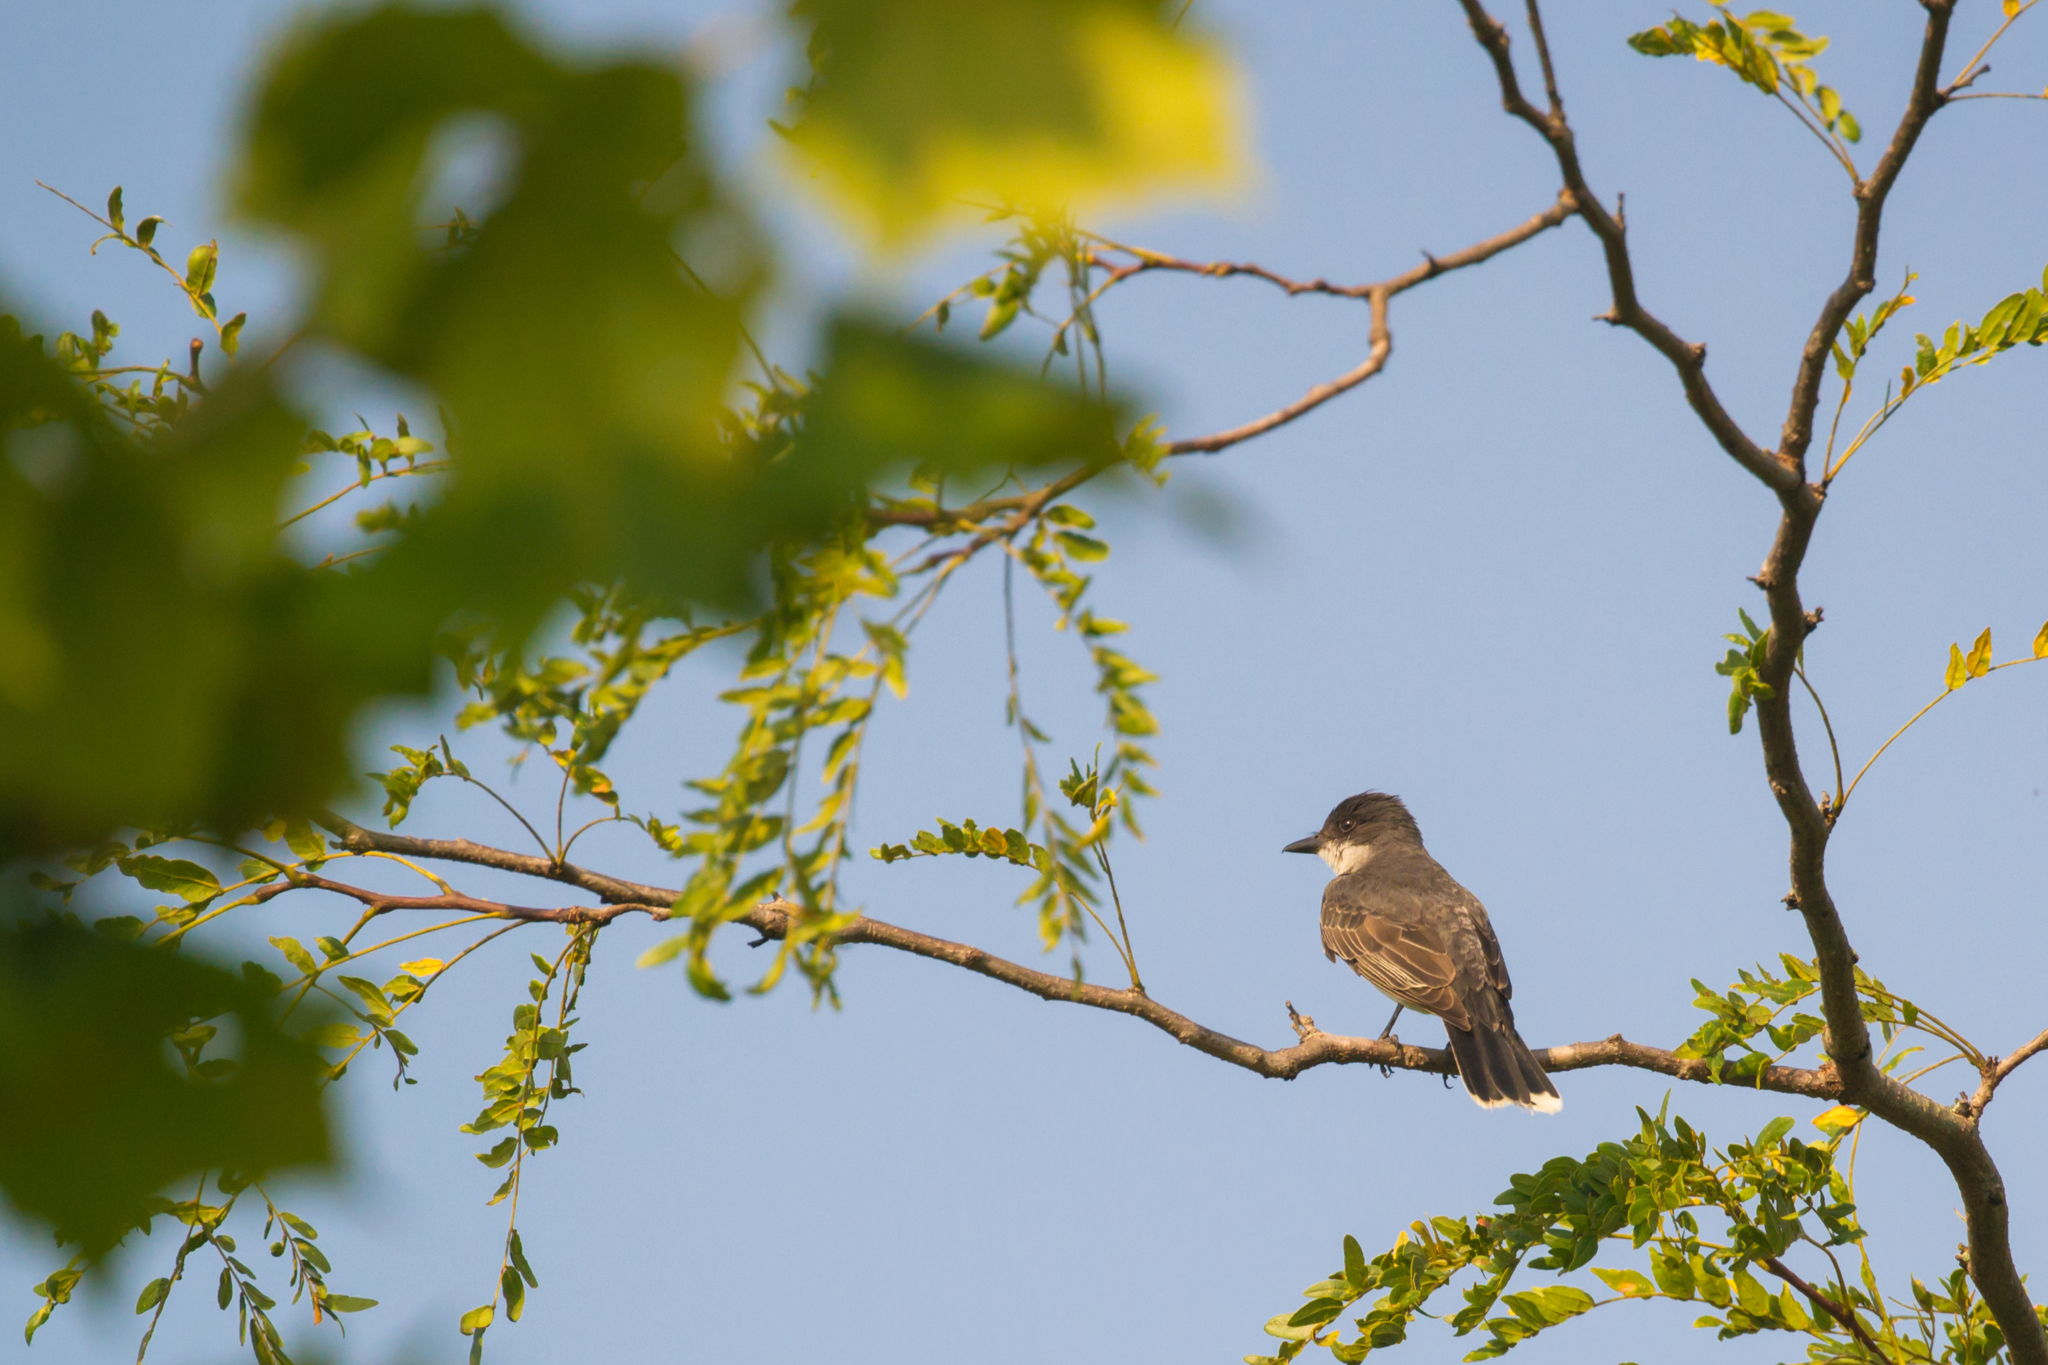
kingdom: Animalia
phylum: Chordata
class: Aves
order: Passeriformes
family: Tyrannidae
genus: Tyrannus
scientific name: Tyrannus tyrannus
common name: Eastern kingbird
